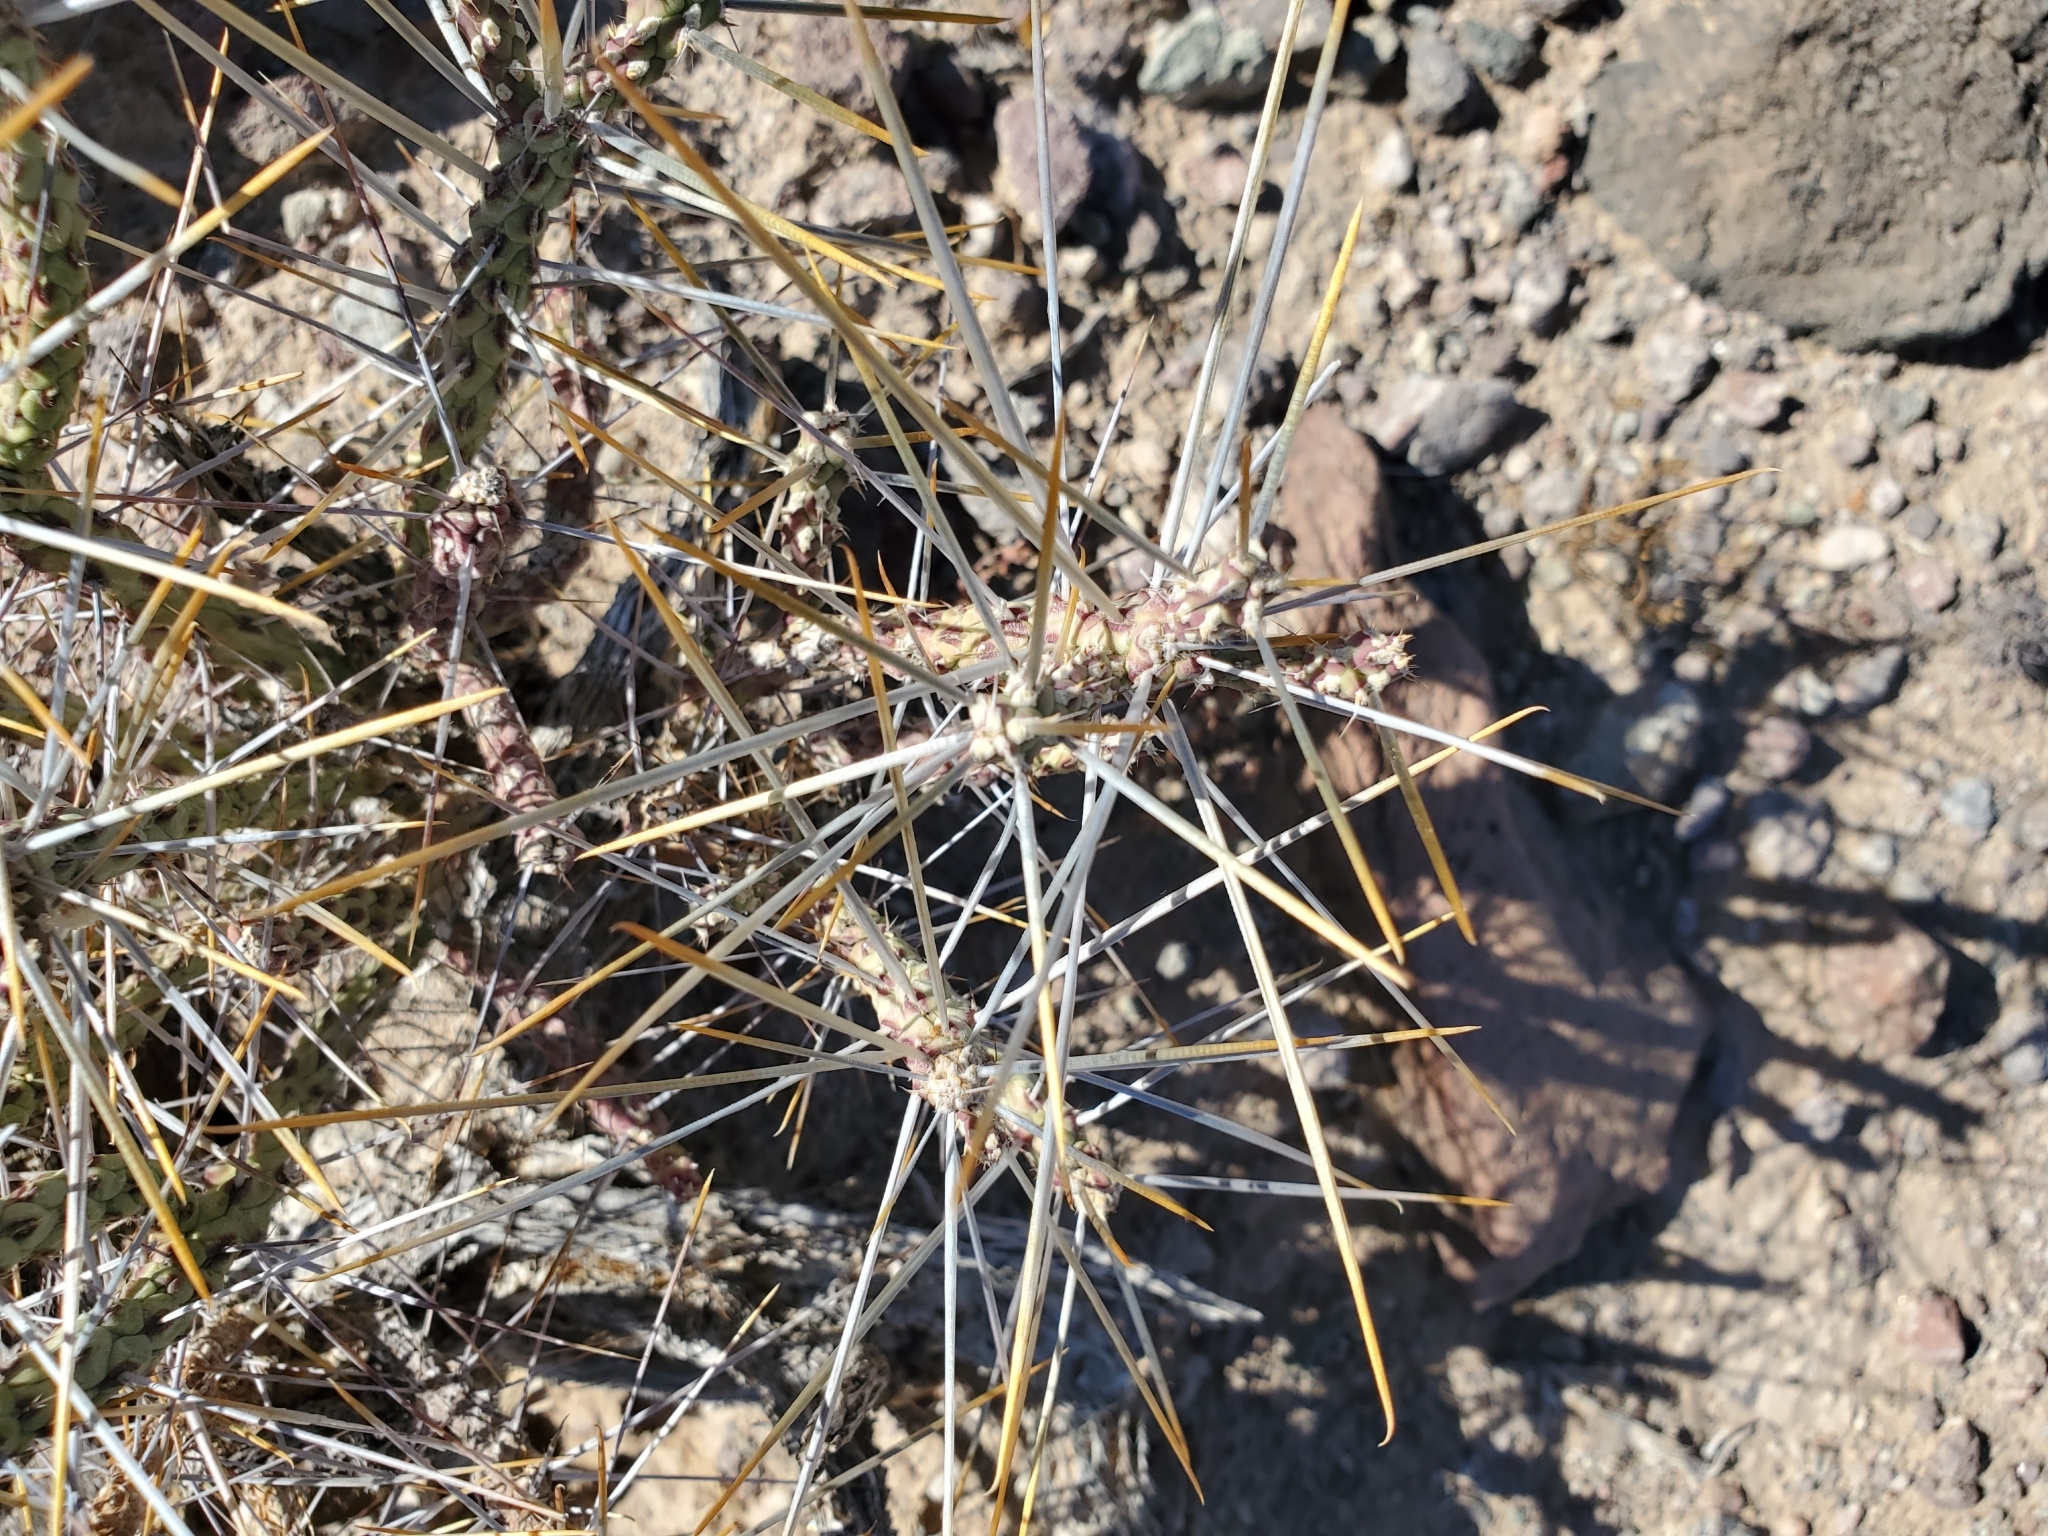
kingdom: Plantae
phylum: Tracheophyta
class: Magnoliopsida
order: Caryophyllales
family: Cactaceae
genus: Cylindropuntia
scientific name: Cylindropuntia ramosissima
